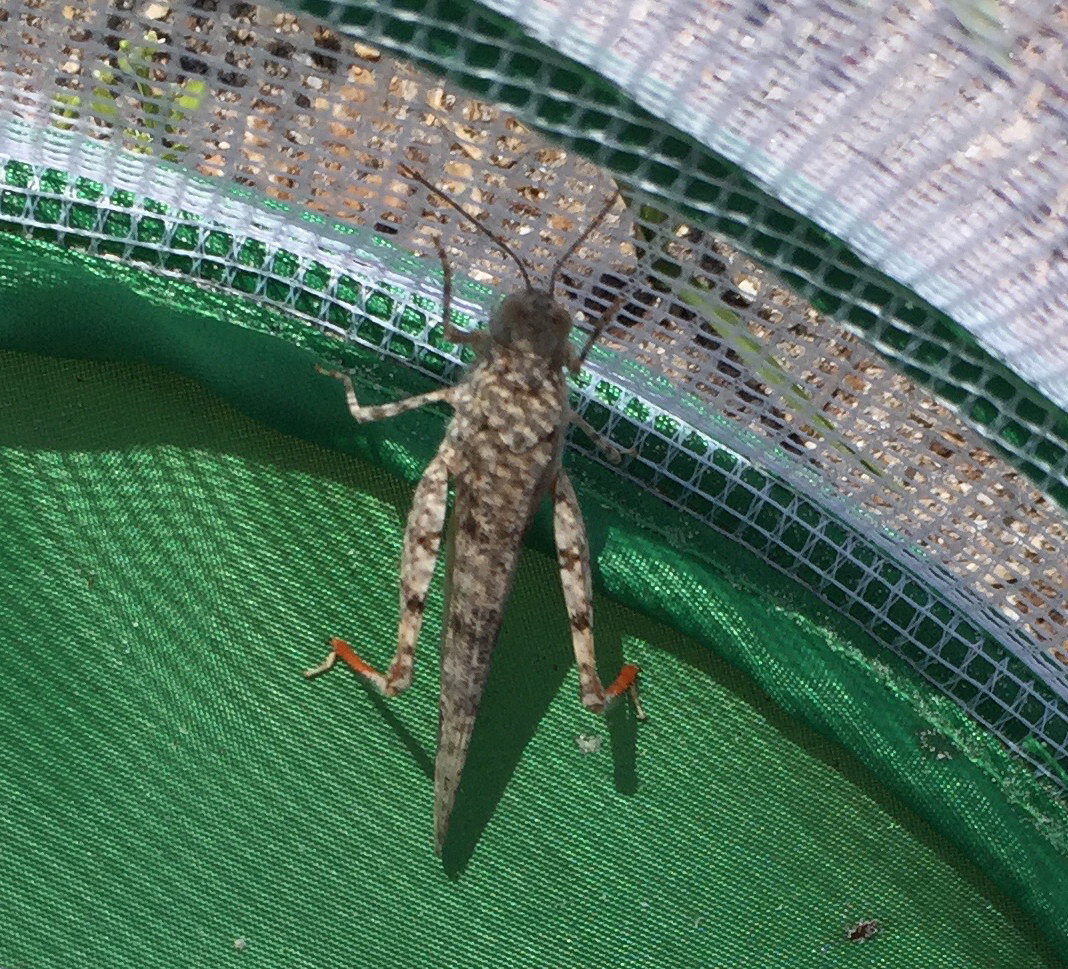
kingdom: Animalia
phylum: Arthropoda
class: Insecta
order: Orthoptera
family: Acrididae
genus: Trimerotropis
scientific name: Trimerotropis maritima
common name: Seaside locust
